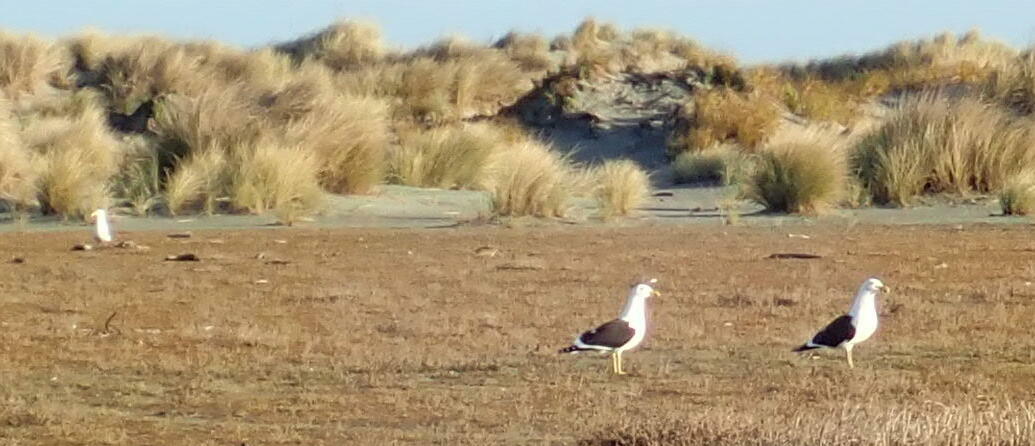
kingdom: Animalia
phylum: Chordata
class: Aves
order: Charadriiformes
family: Laridae
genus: Larus
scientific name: Larus dominicanus
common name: Kelp gull
